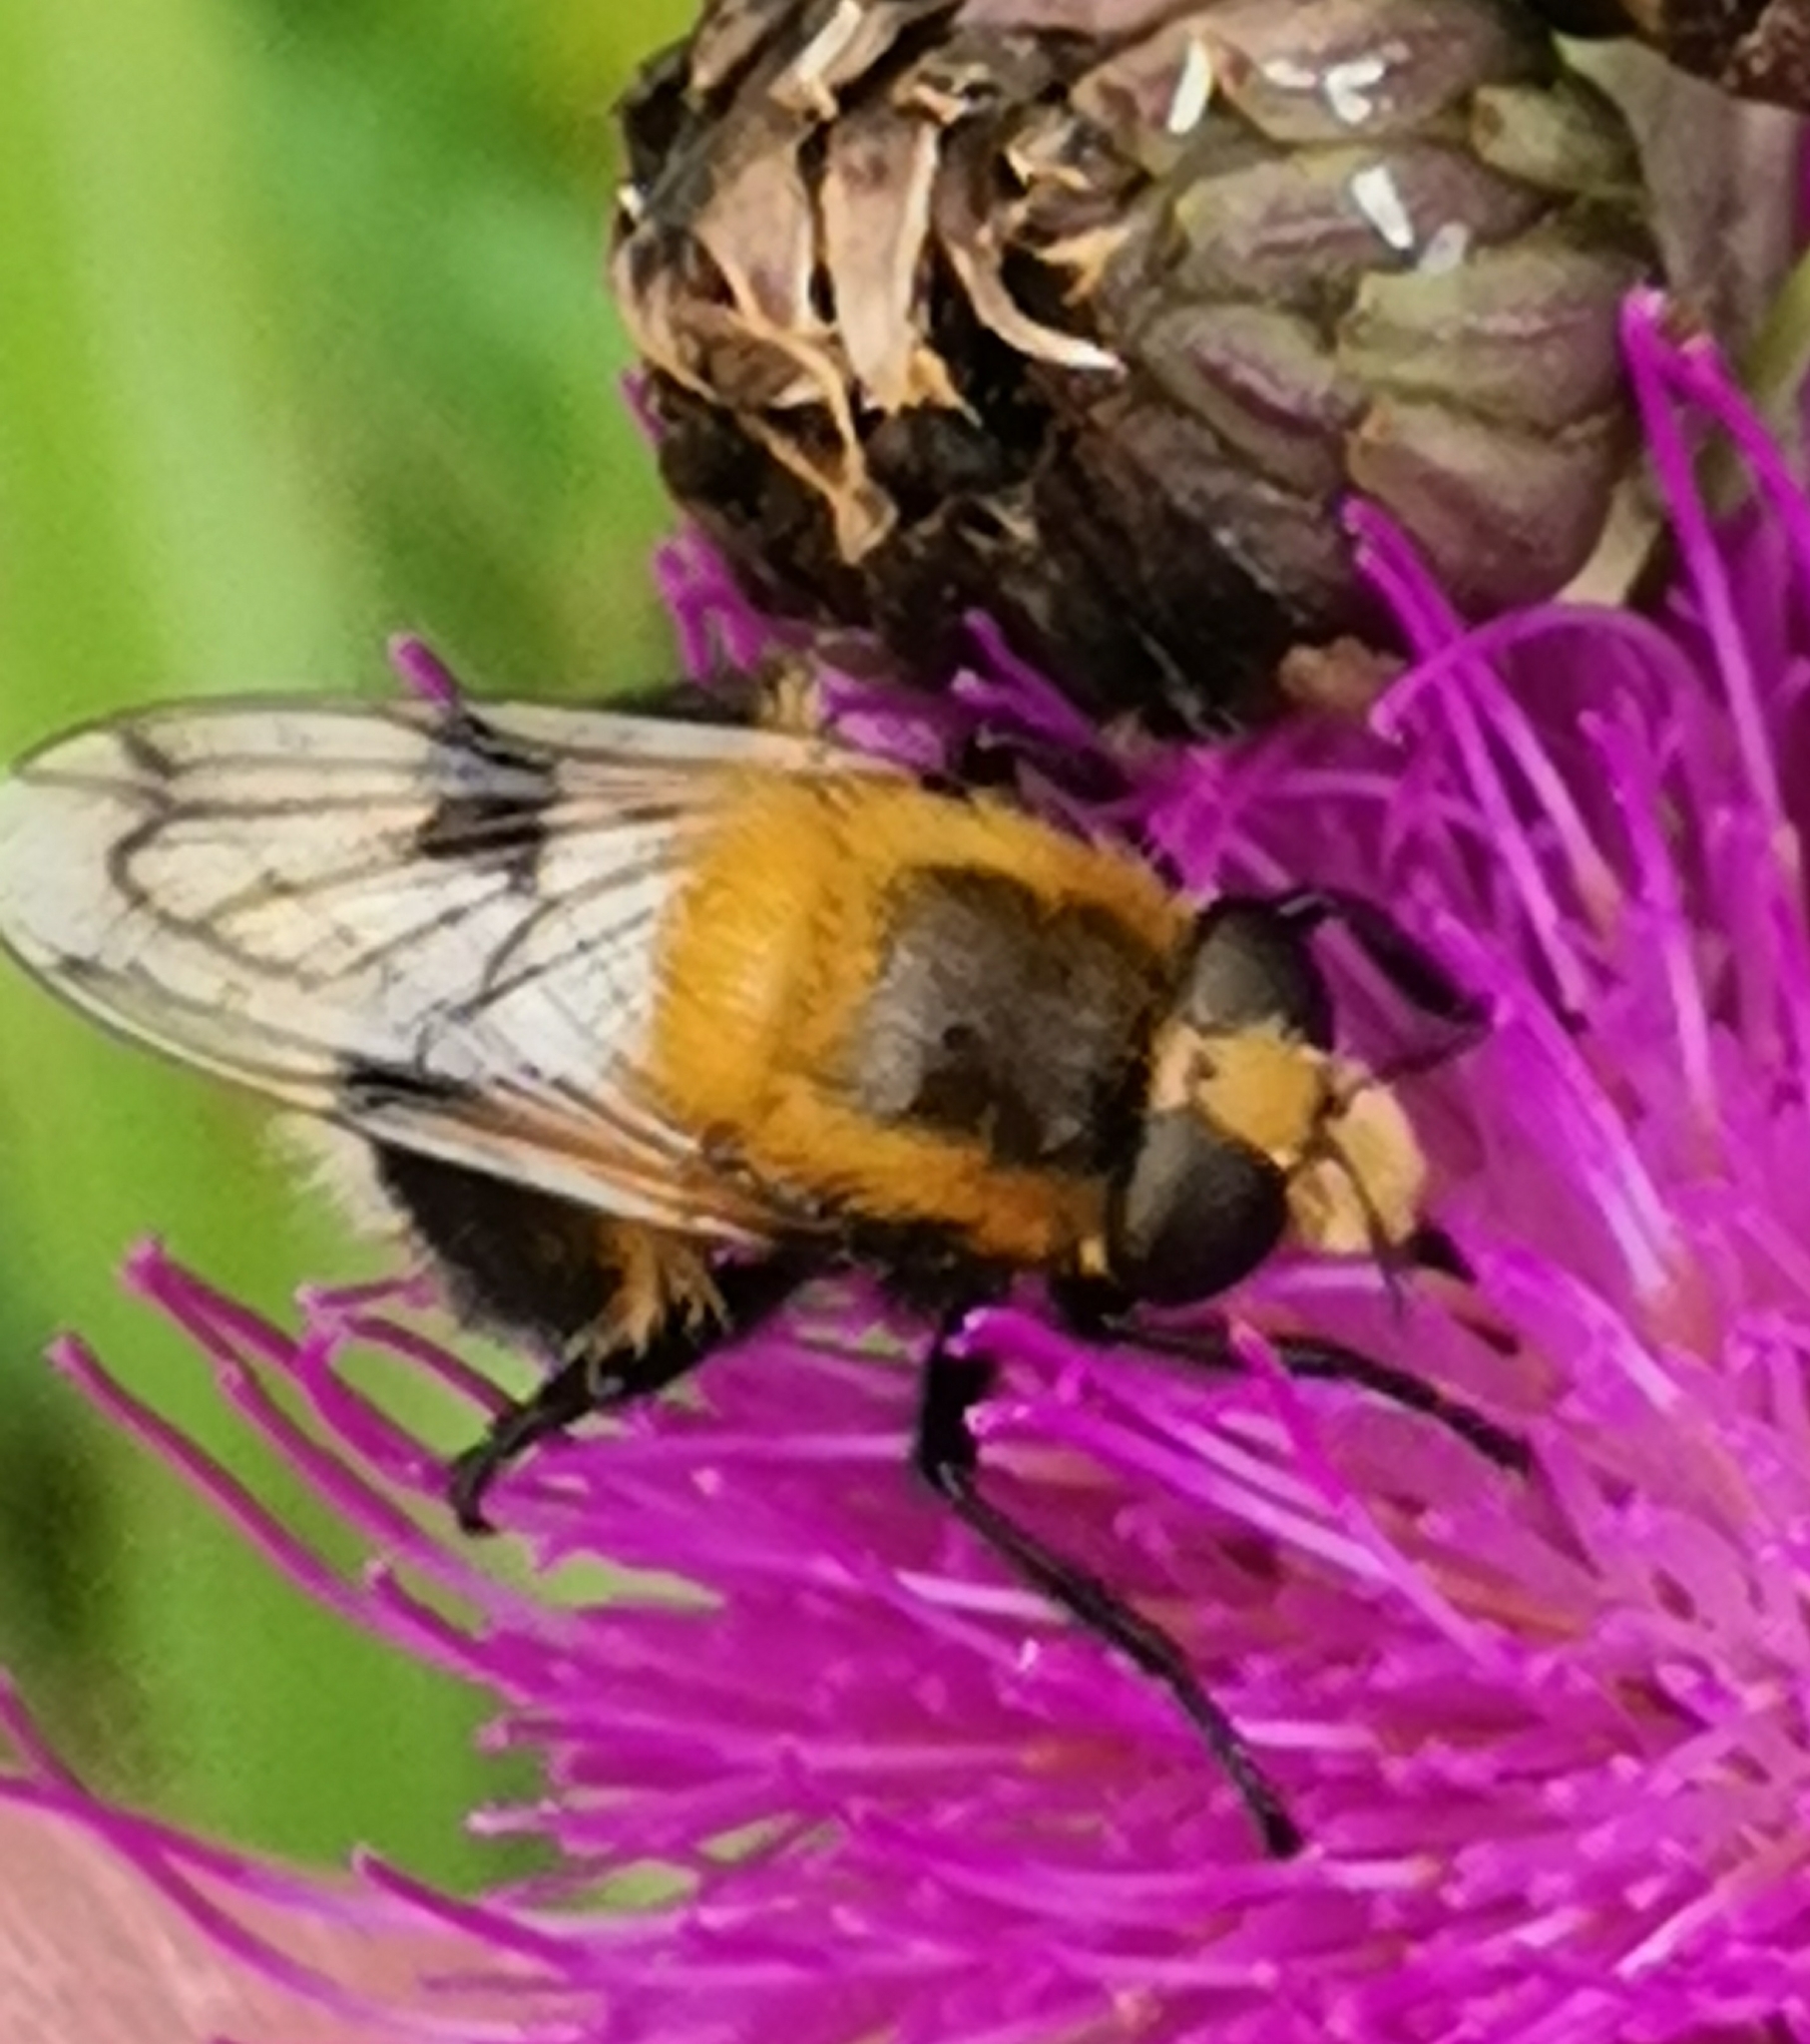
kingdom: Animalia
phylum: Arthropoda
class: Insecta
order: Diptera
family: Syrphidae
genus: Volucella
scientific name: Volucella bombylans
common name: Bumble bee hover fly
